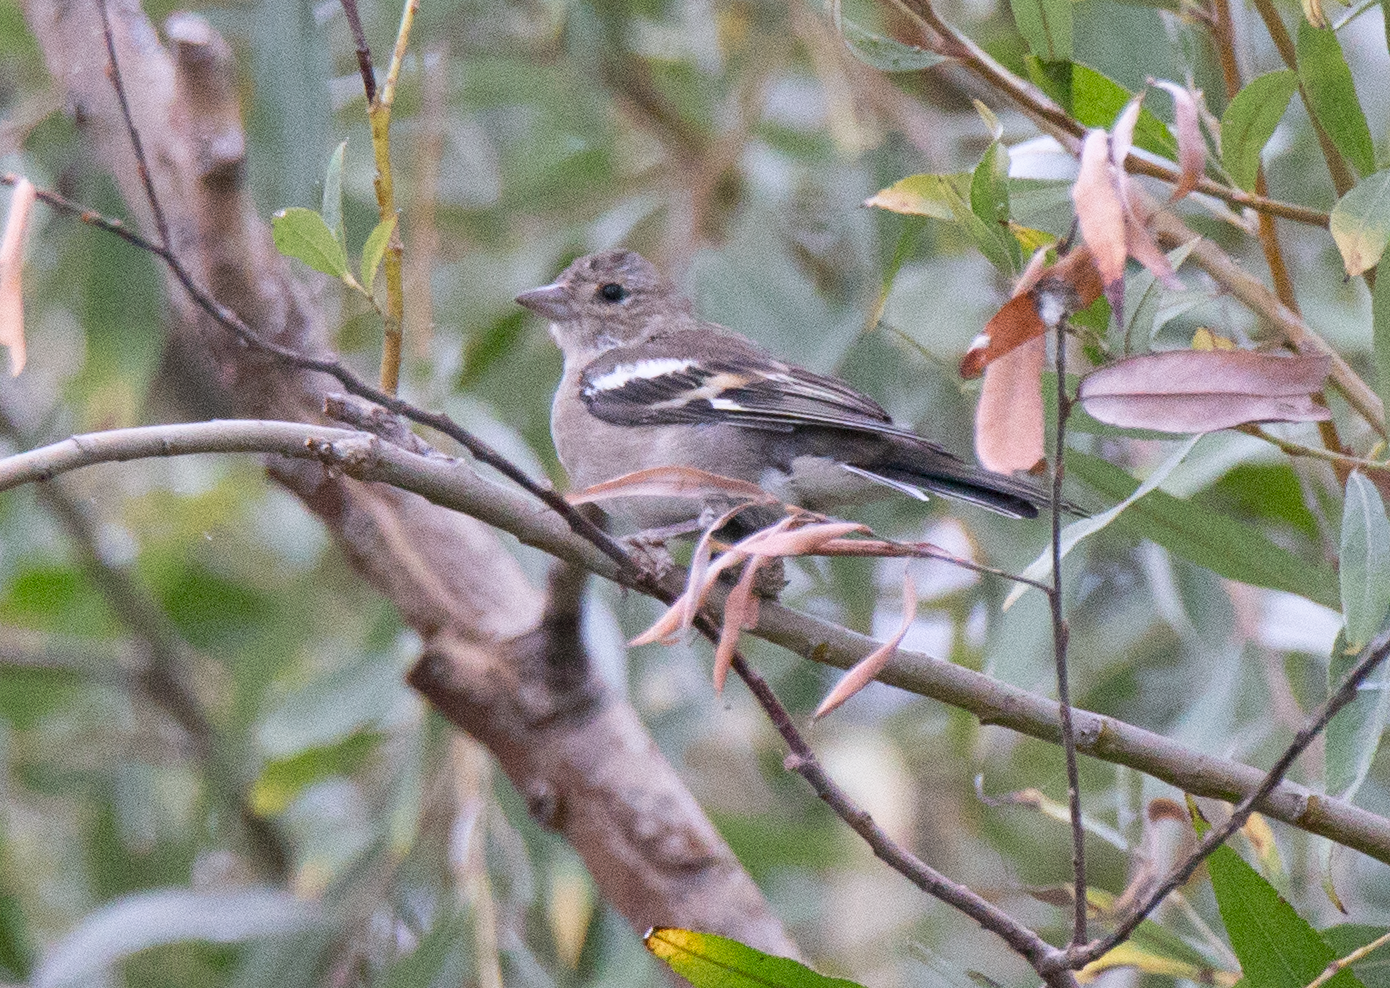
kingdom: Animalia
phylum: Chordata
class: Aves
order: Passeriformes
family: Fringillidae
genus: Fringilla
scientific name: Fringilla coelebs
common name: Common chaffinch
